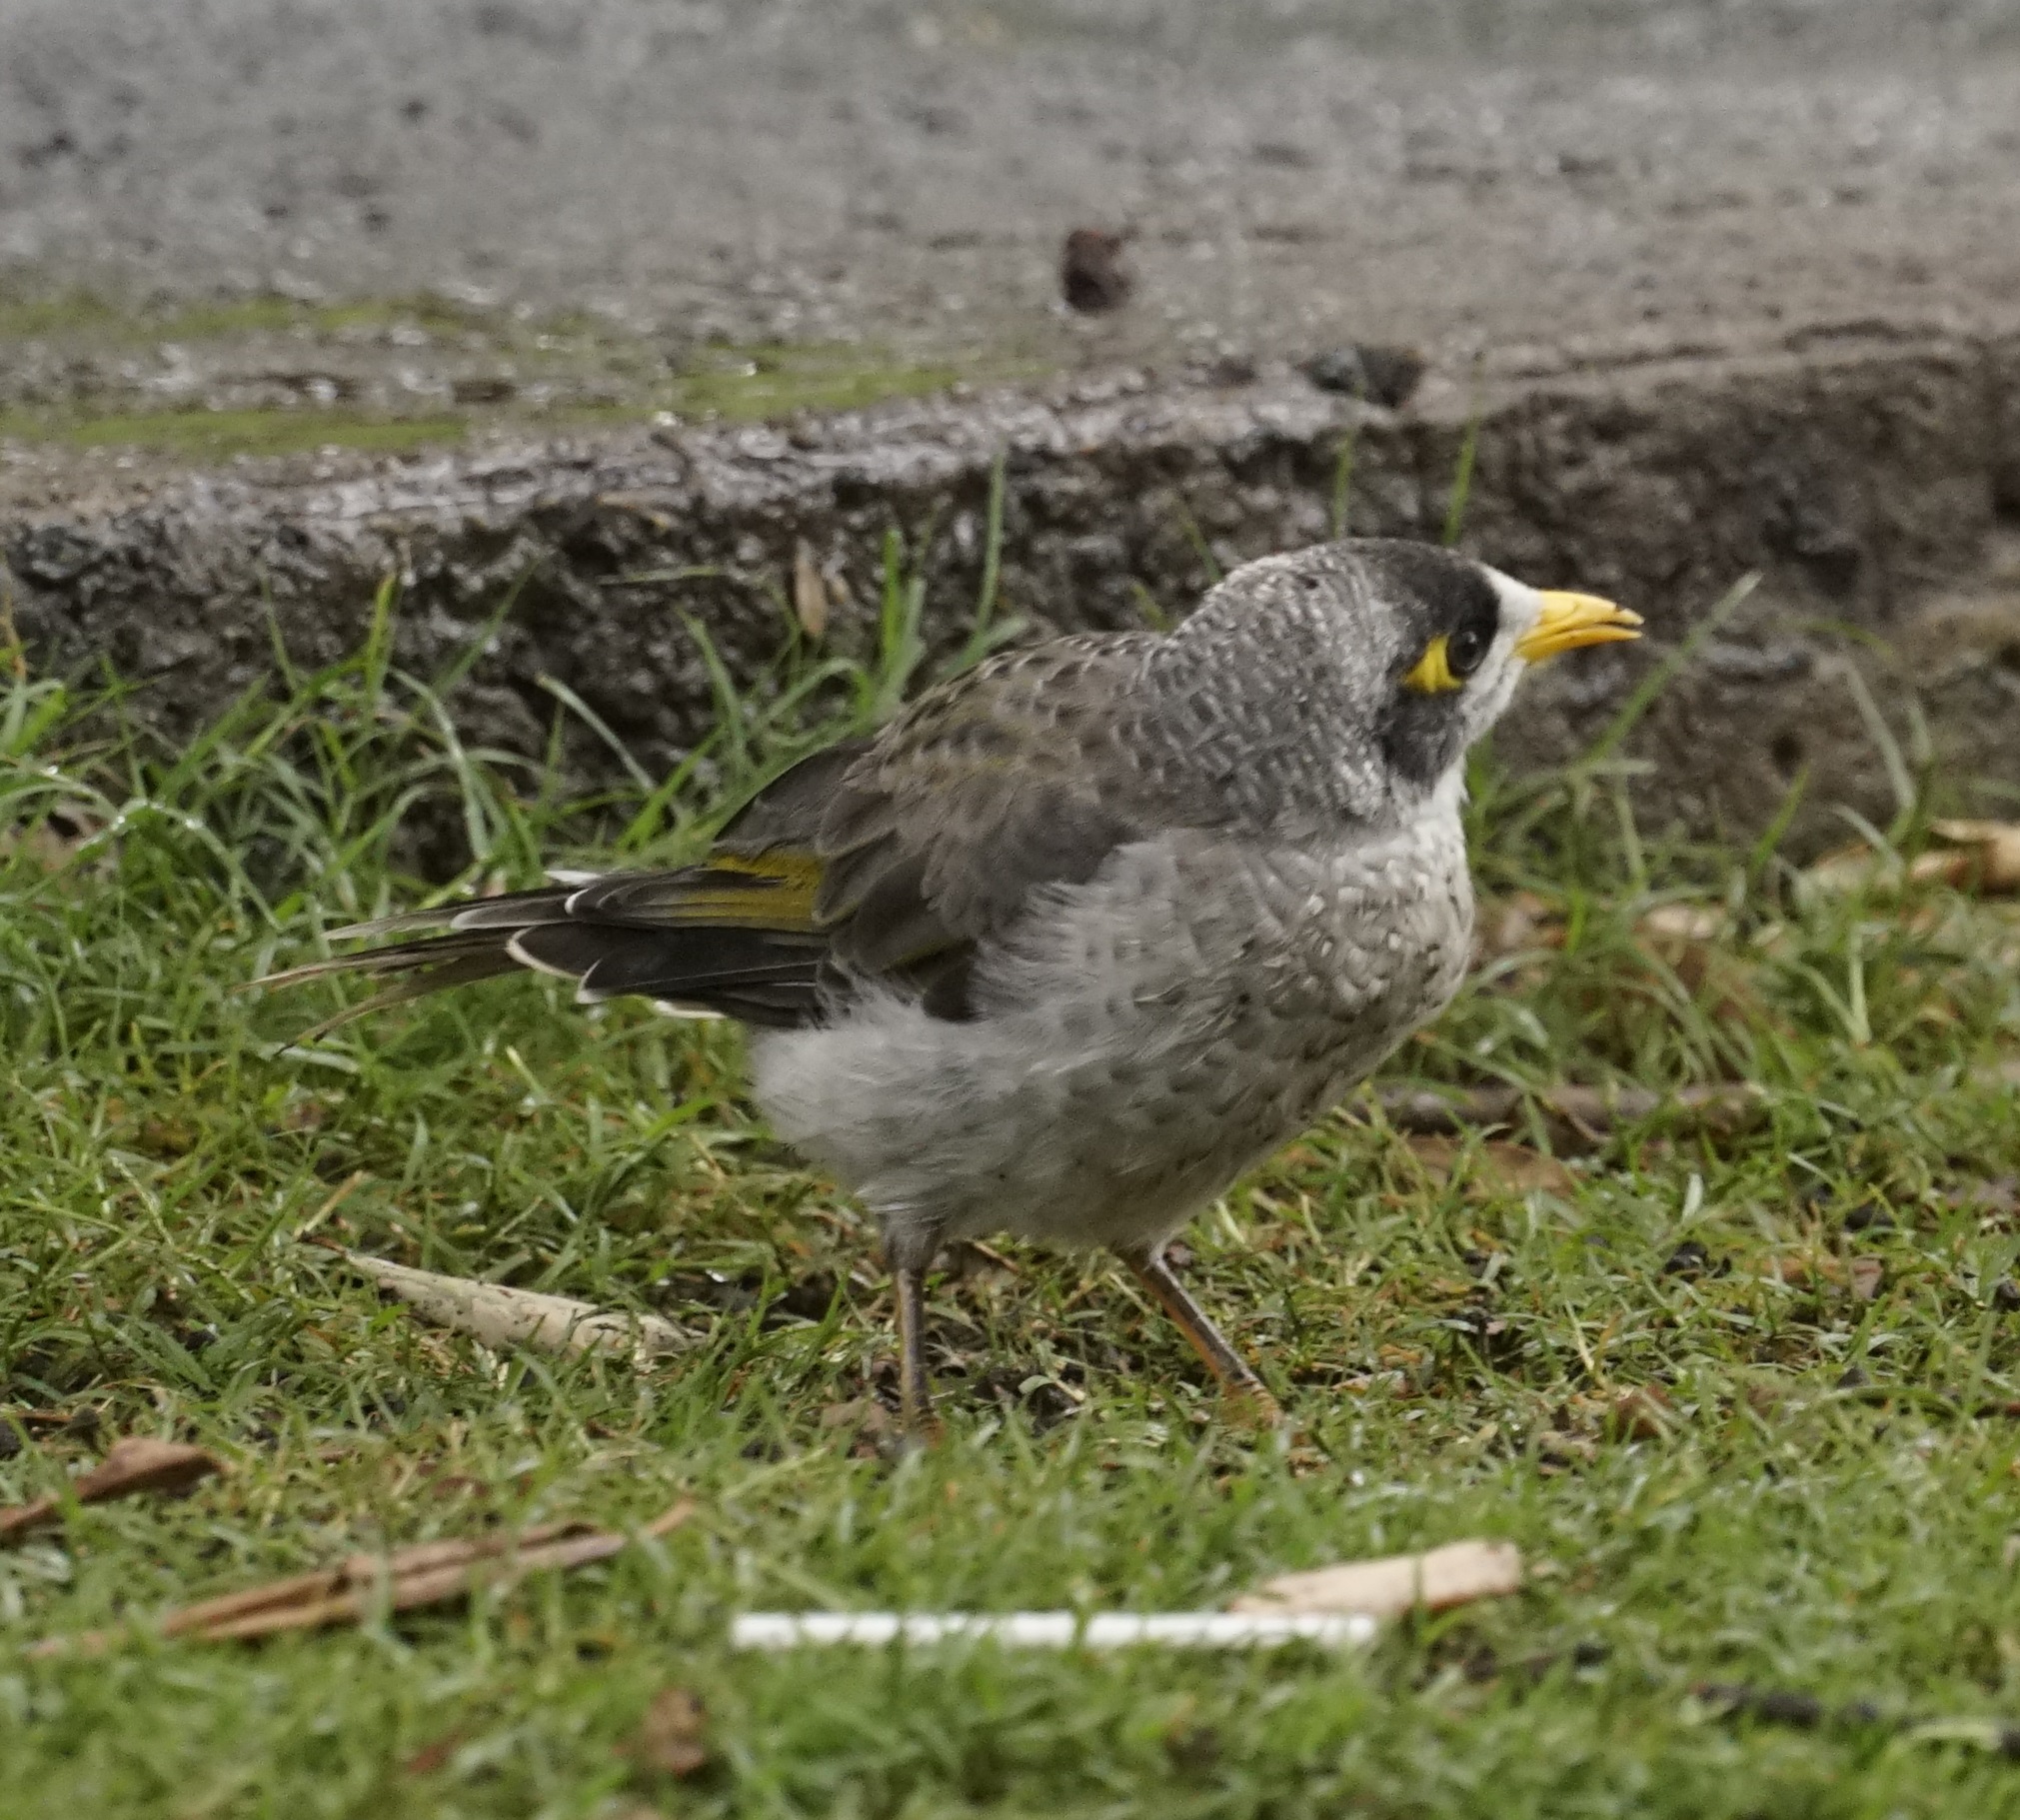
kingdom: Animalia
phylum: Chordata
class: Aves
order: Passeriformes
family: Meliphagidae
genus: Manorina
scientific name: Manorina melanocephala
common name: Noisy miner
